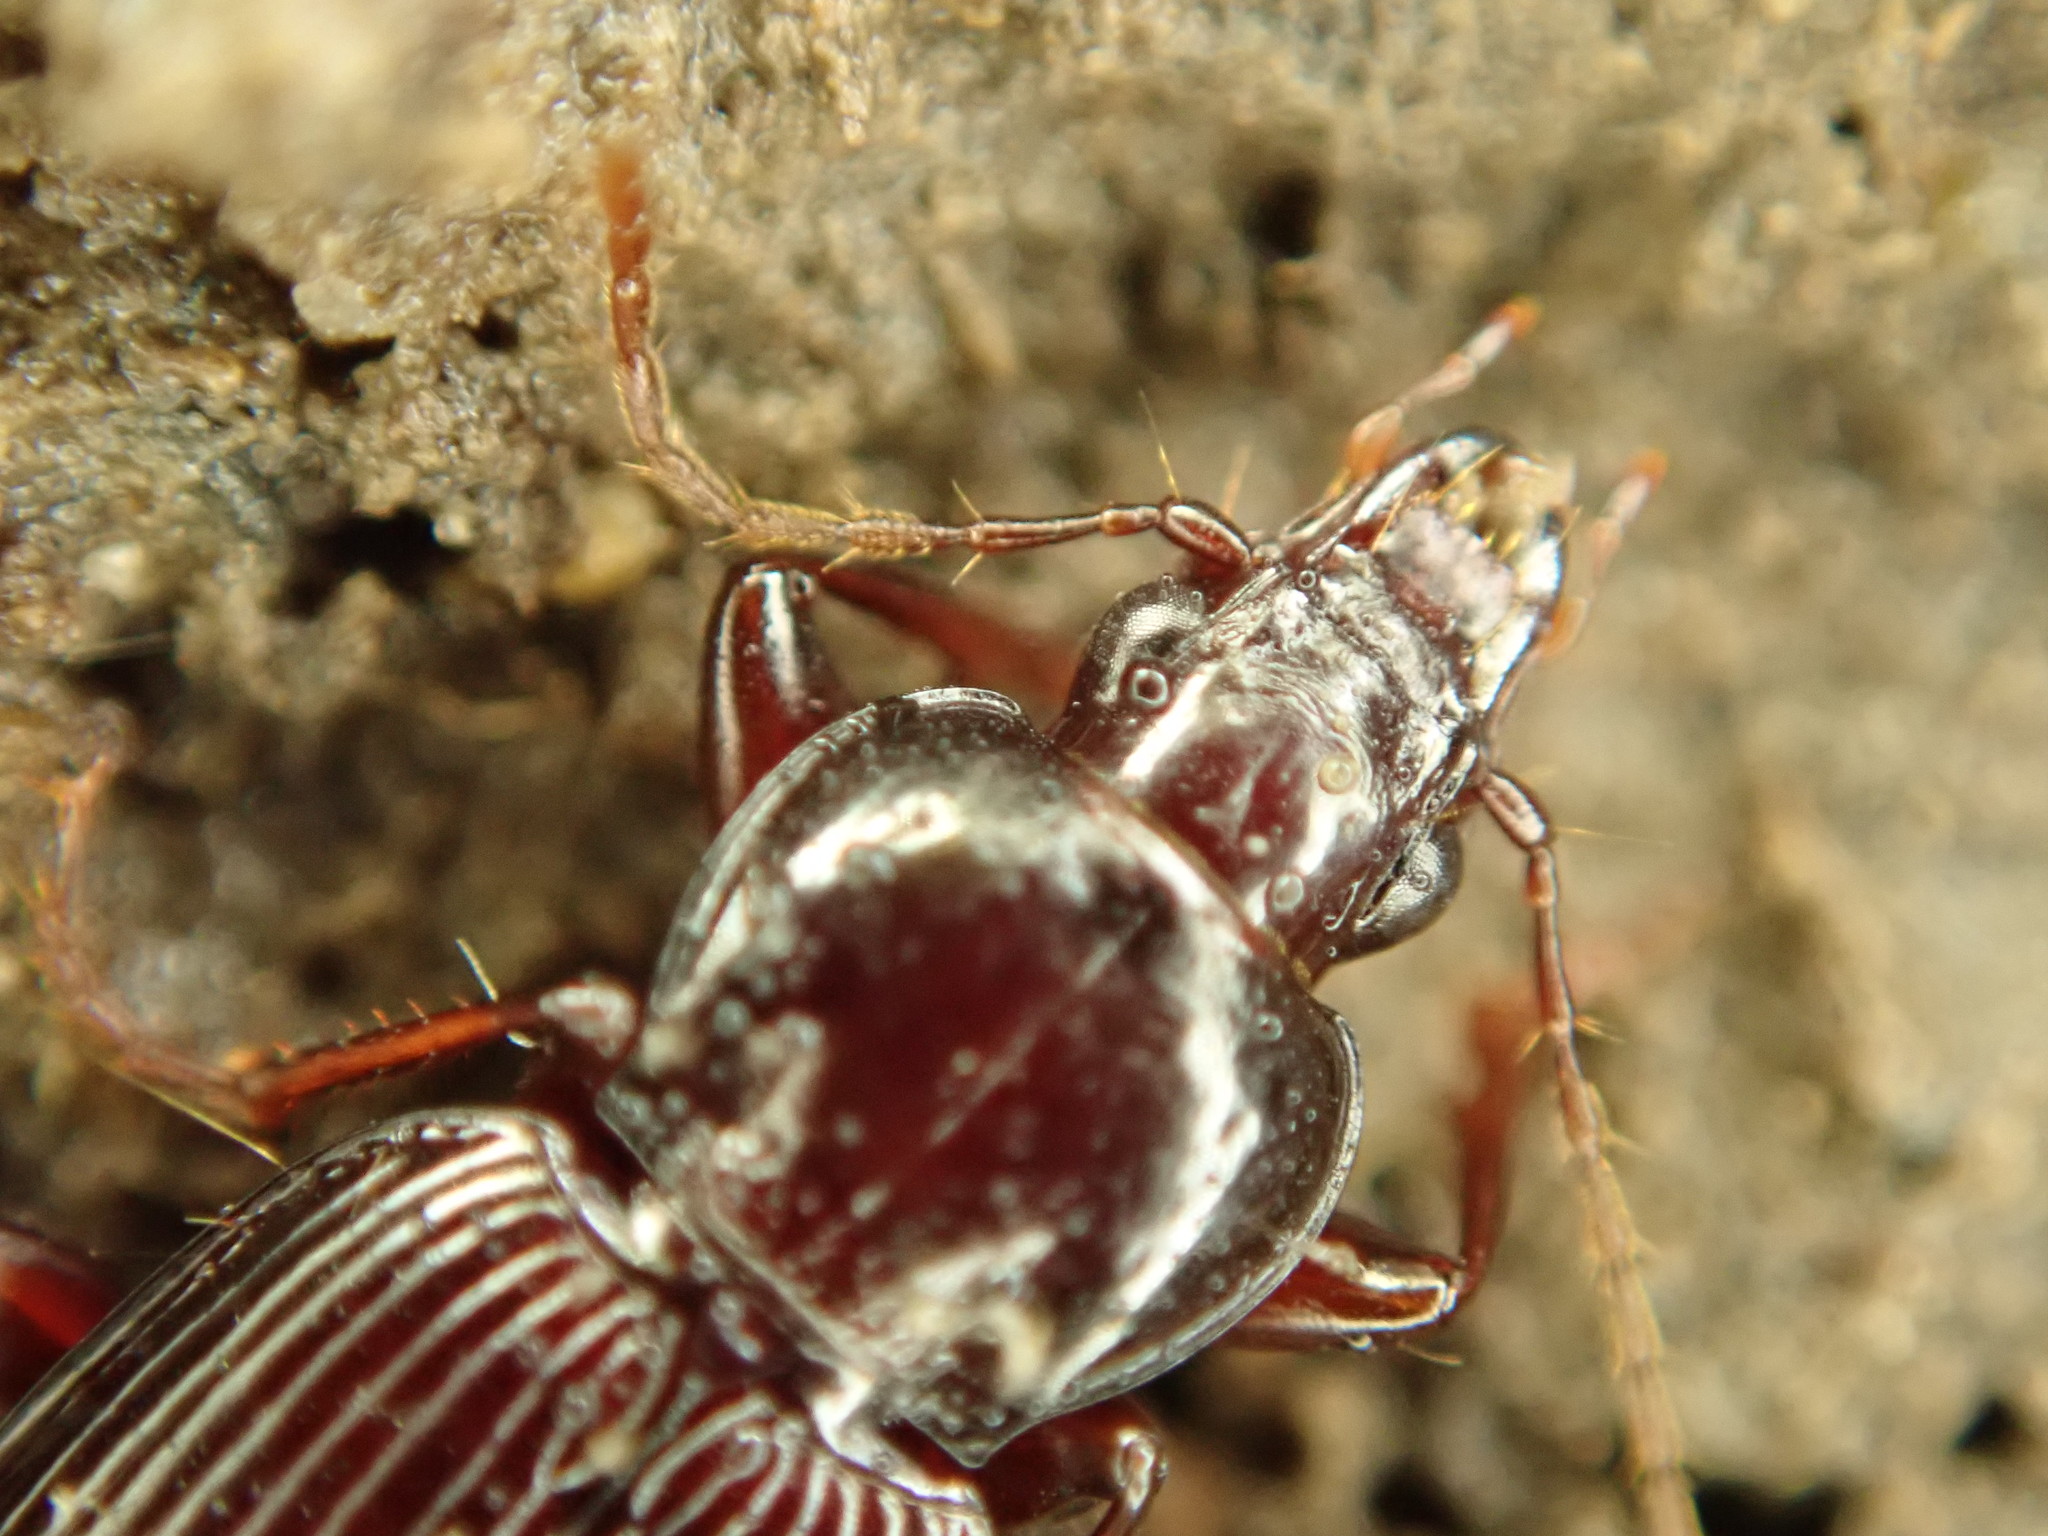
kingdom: Animalia
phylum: Arthropoda
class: Insecta
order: Coleoptera
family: Carabidae
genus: Gastrellarius
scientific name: Gastrellarius honestus
